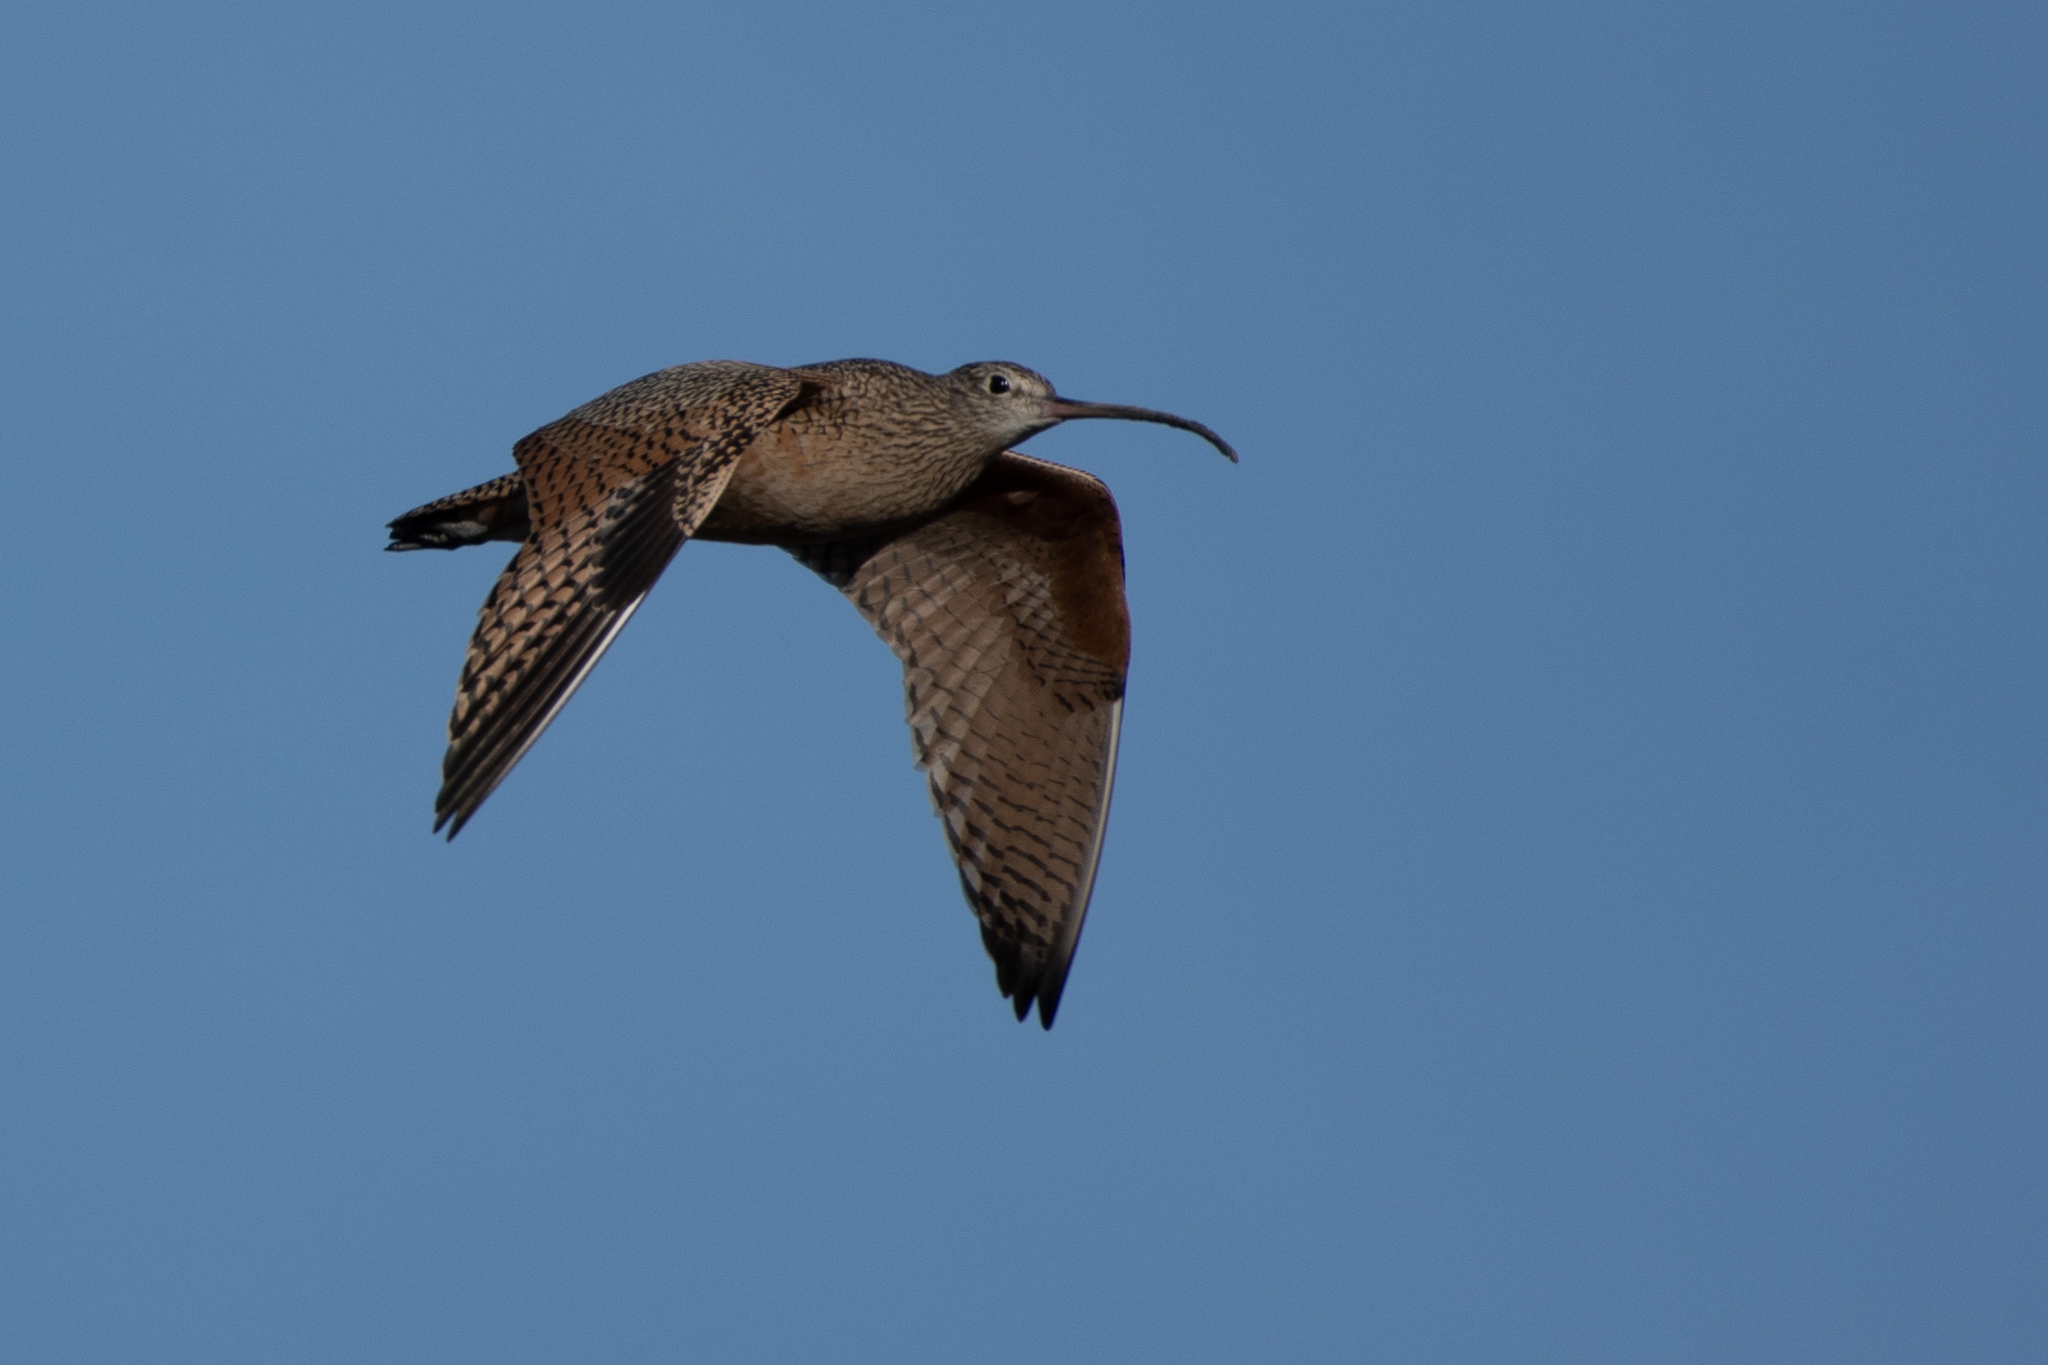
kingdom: Animalia
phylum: Chordata
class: Aves
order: Charadriiformes
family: Scolopacidae
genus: Numenius
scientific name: Numenius americanus
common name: Long-billed curlew
